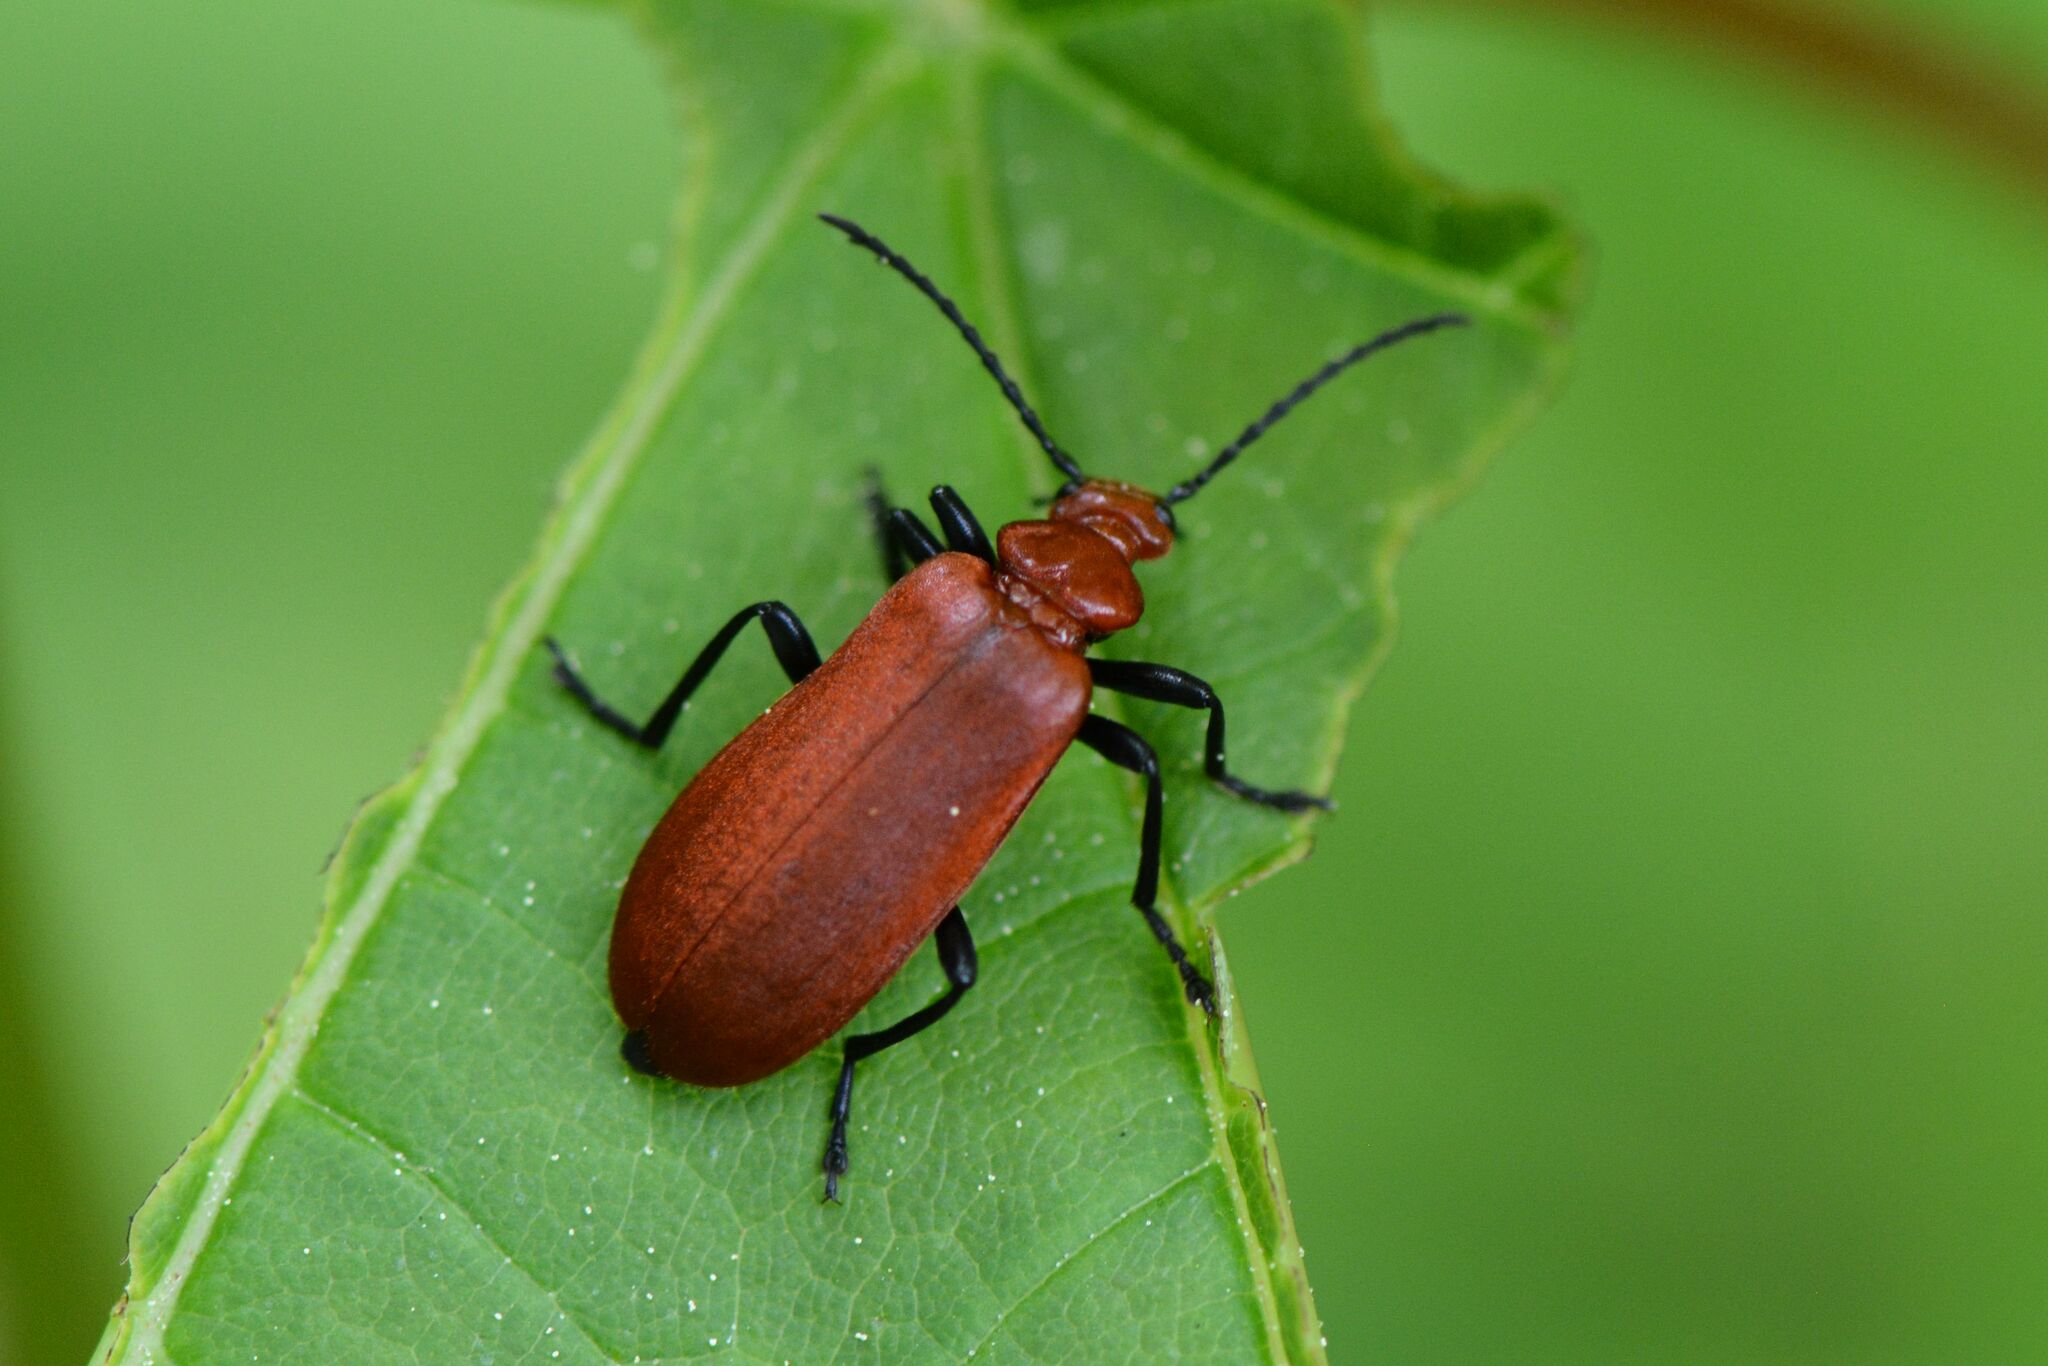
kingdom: Animalia
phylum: Arthropoda
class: Insecta
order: Coleoptera
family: Pyrochroidae
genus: Pyrochroa
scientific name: Pyrochroa serraticornis
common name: Red-headed cardinal beetle
